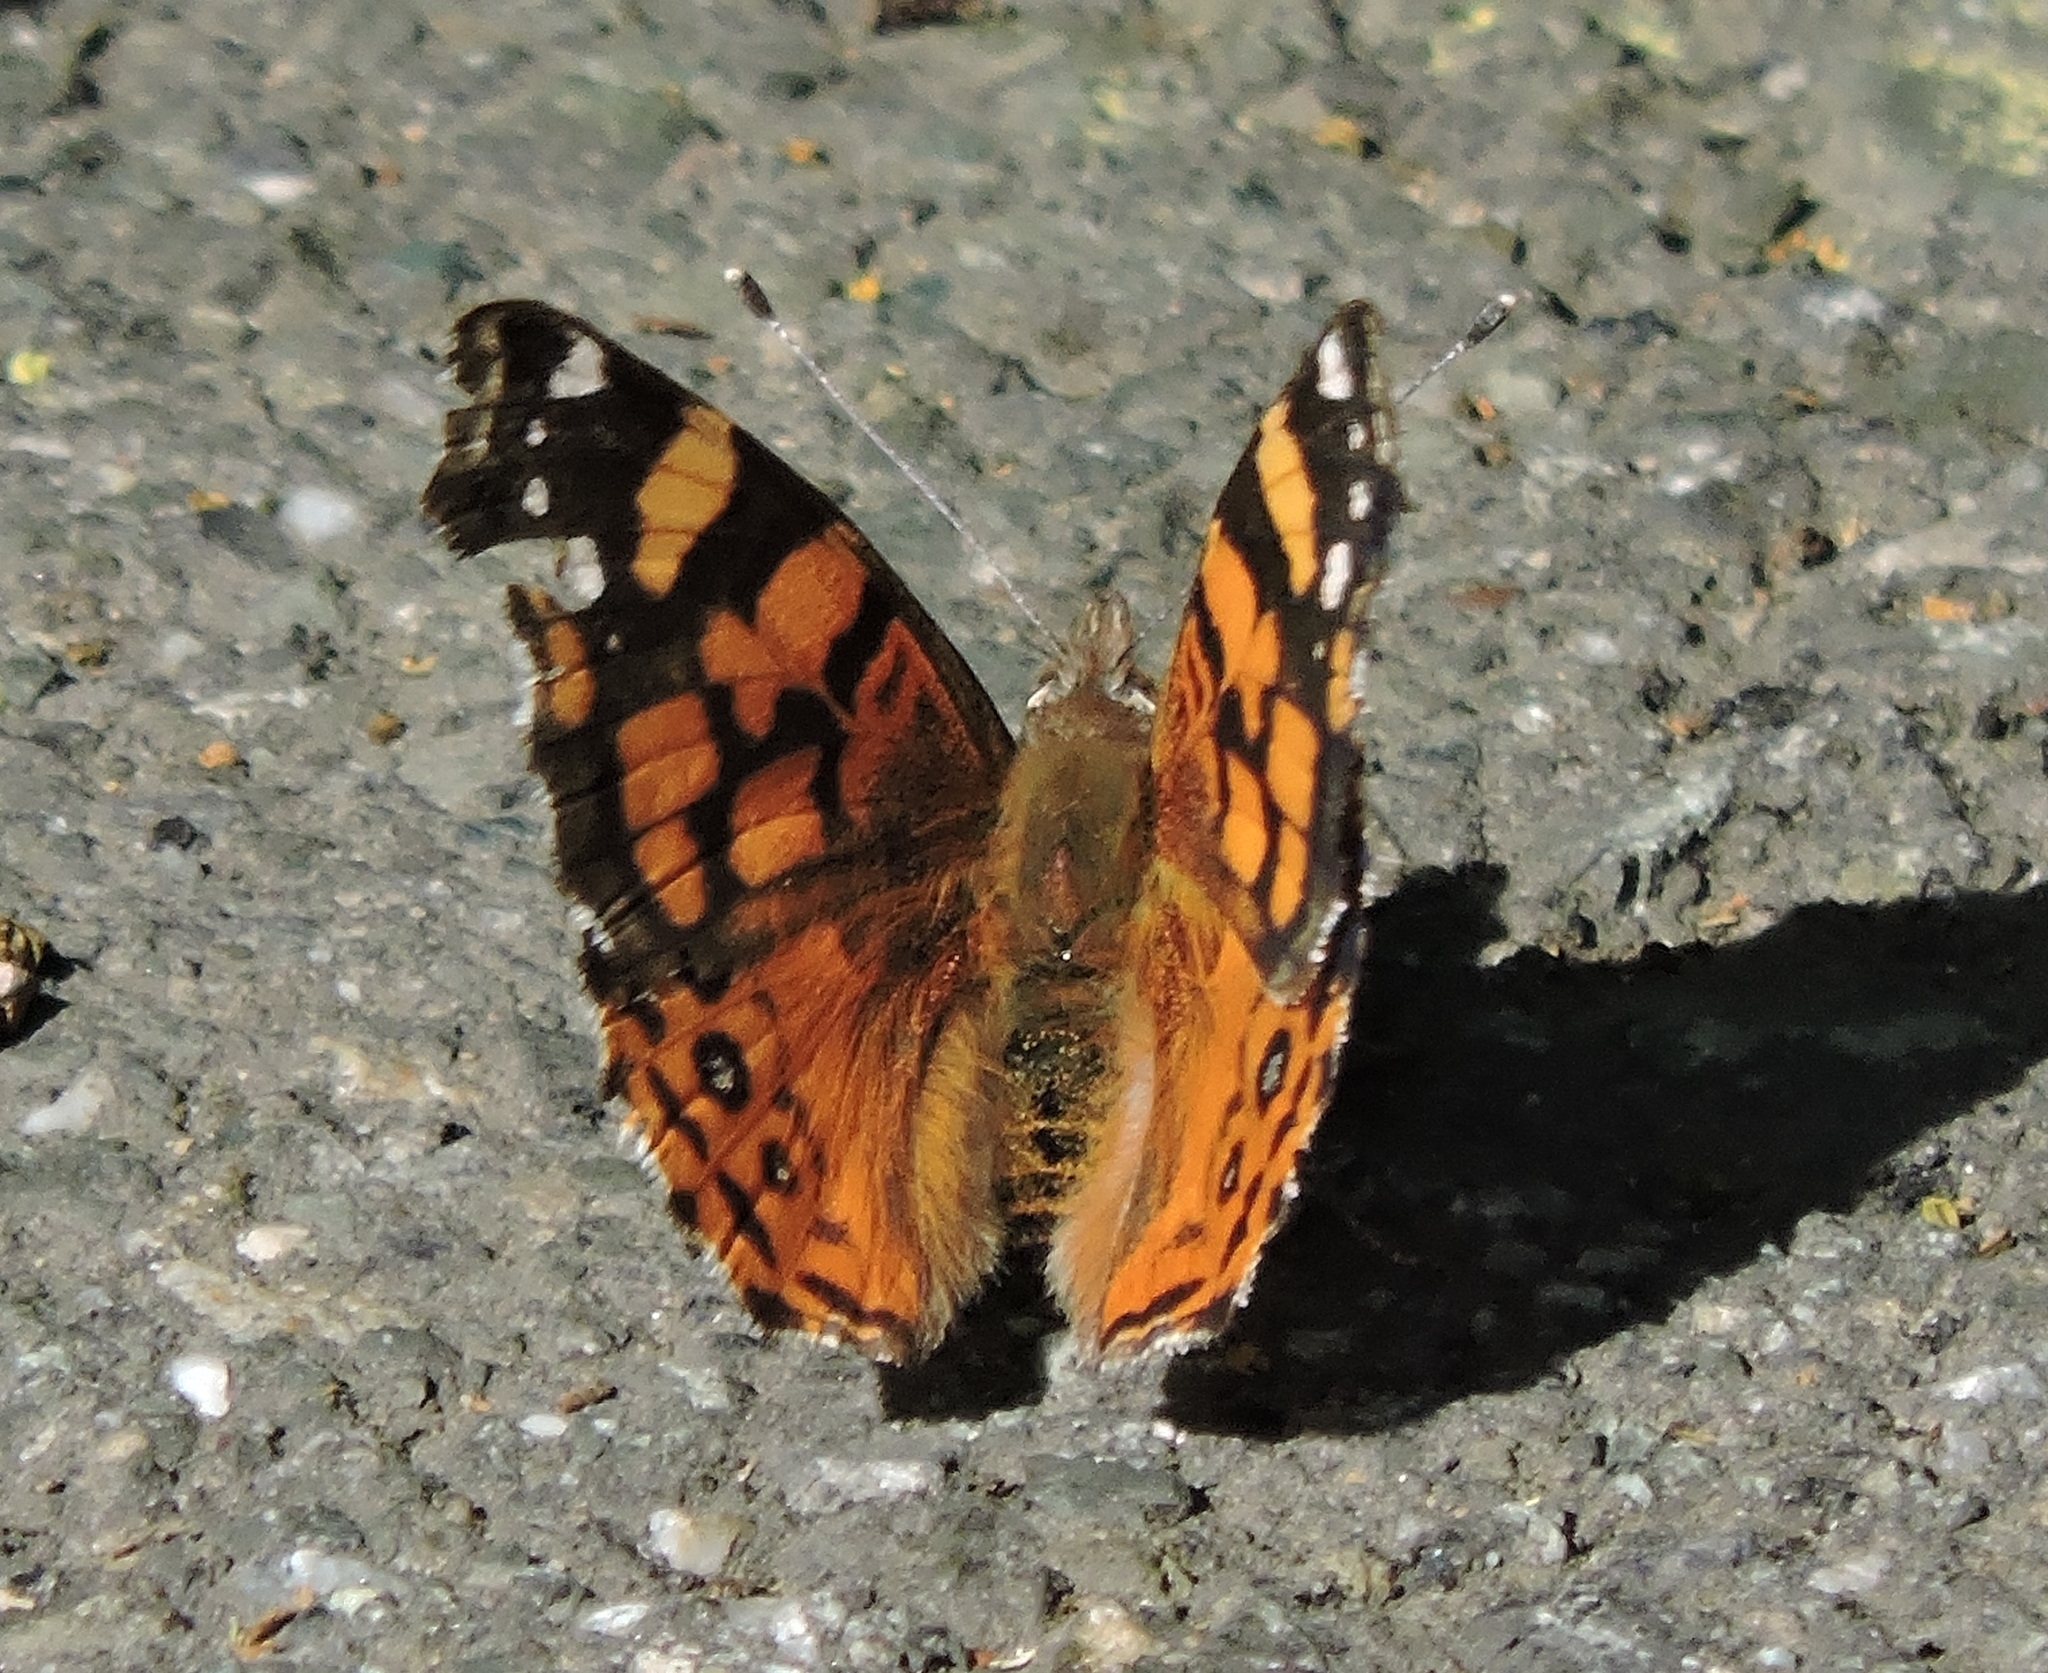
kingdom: Animalia
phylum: Arthropoda
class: Insecta
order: Lepidoptera
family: Nymphalidae
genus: Vanessa
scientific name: Vanessa annabella
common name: West coast lady
